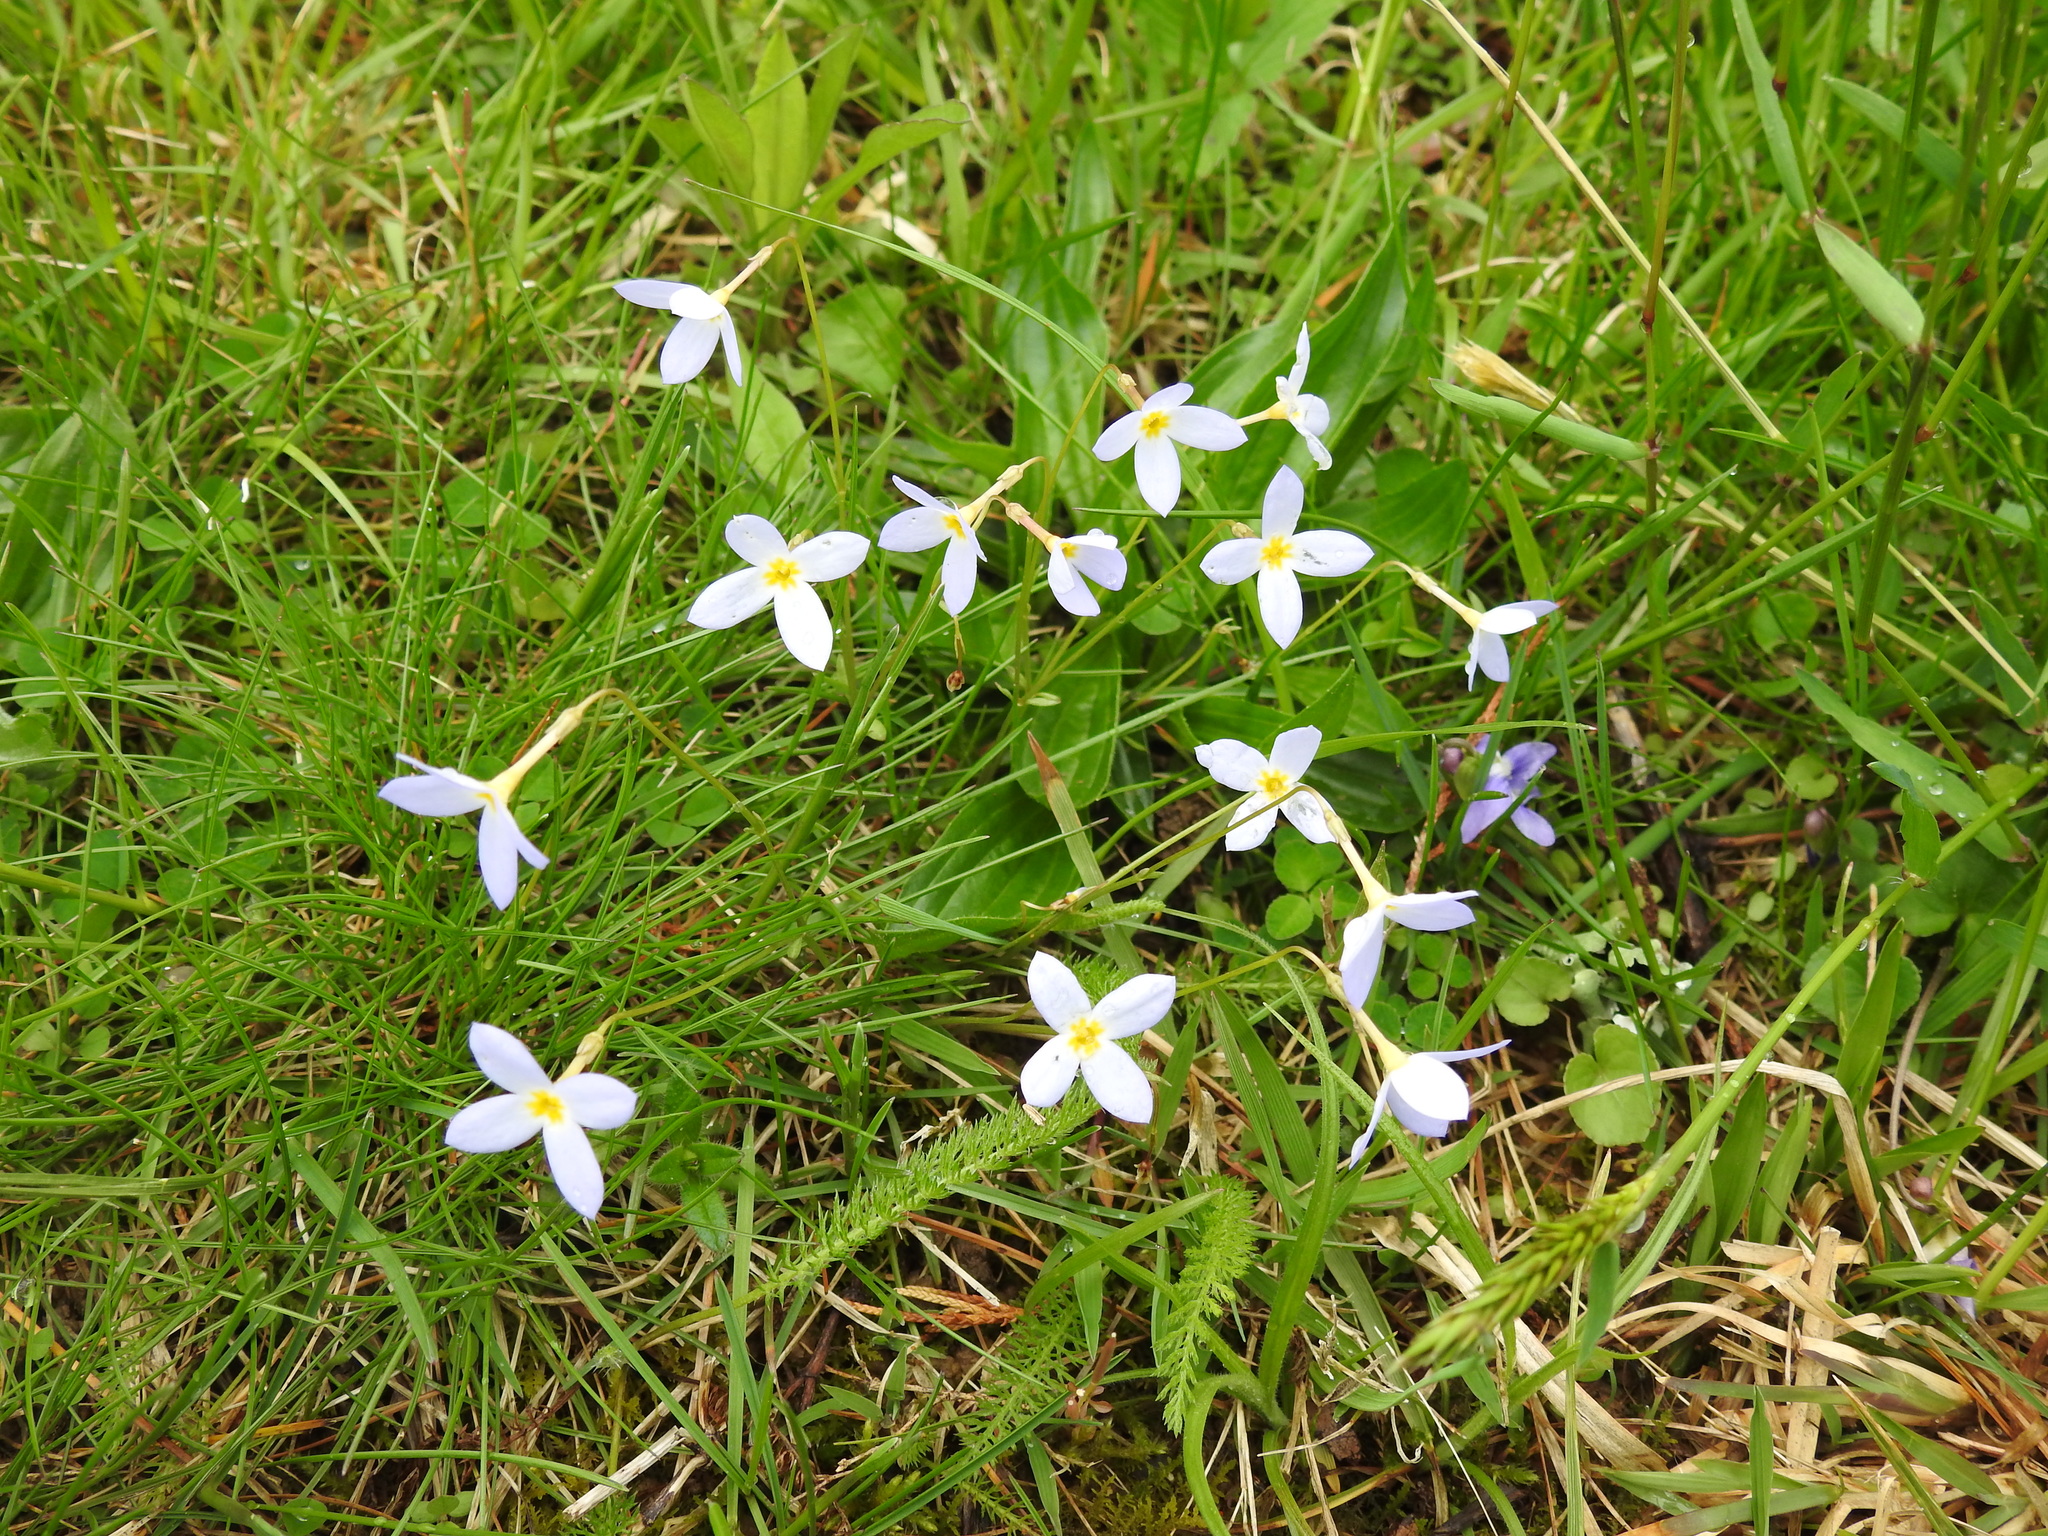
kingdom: Plantae
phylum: Tracheophyta
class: Magnoliopsida
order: Gentianales
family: Rubiaceae
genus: Houstonia
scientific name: Houstonia caerulea
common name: Bluets
